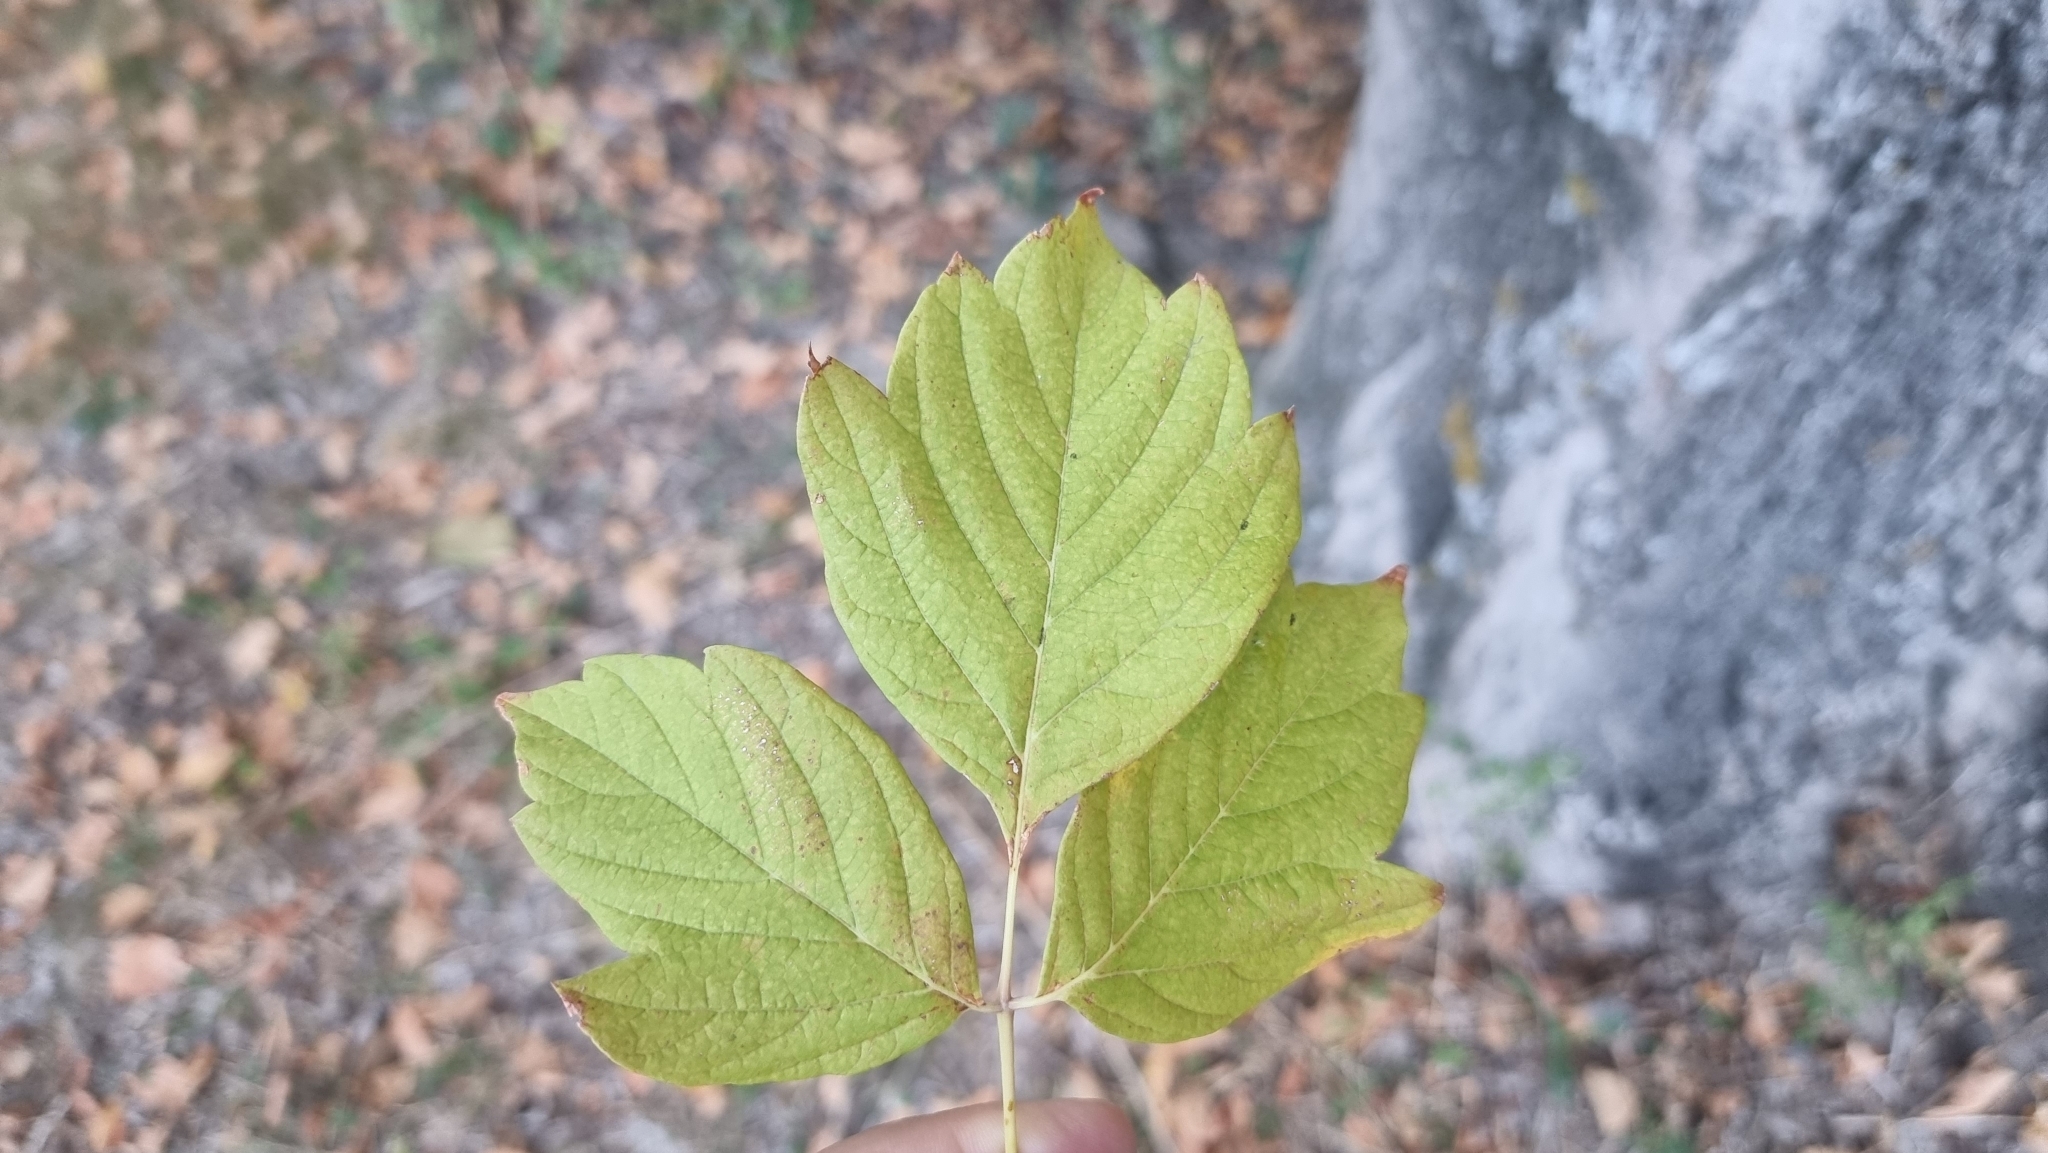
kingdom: Plantae
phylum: Tracheophyta
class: Magnoliopsida
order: Sapindales
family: Sapindaceae
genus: Acer
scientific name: Acer negundo
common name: Ashleaf maple
